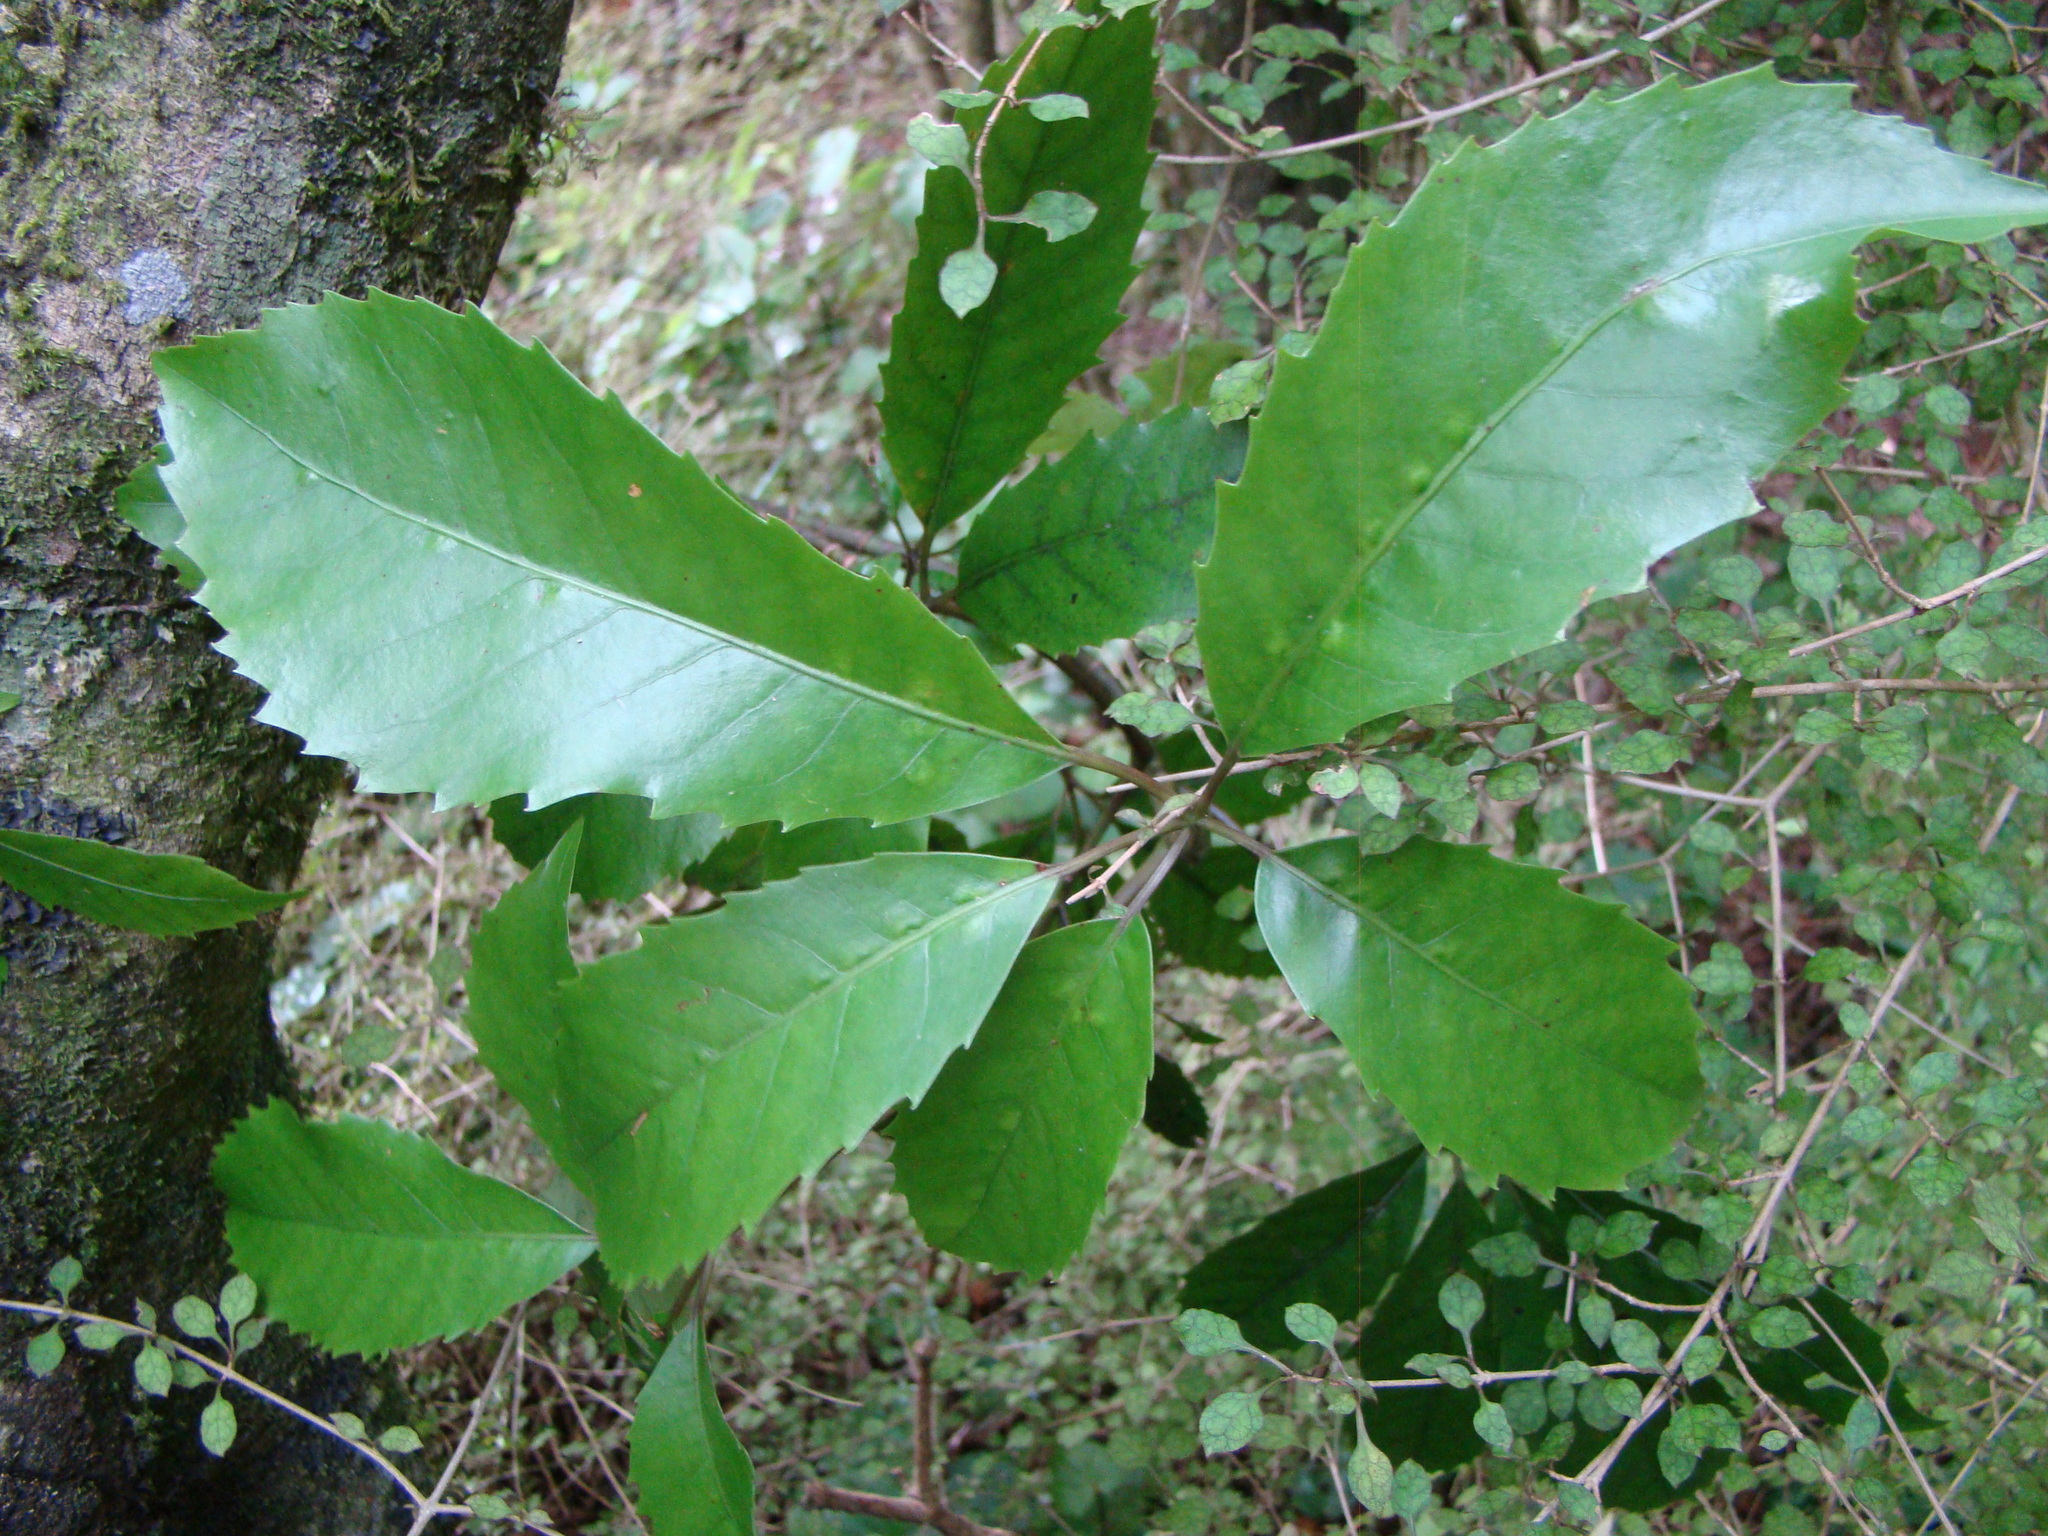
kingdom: Plantae
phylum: Tracheophyta
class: Magnoliopsida
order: Apiales
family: Araliaceae
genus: Neopanax
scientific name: Neopanax arboreus
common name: Five-fingers
